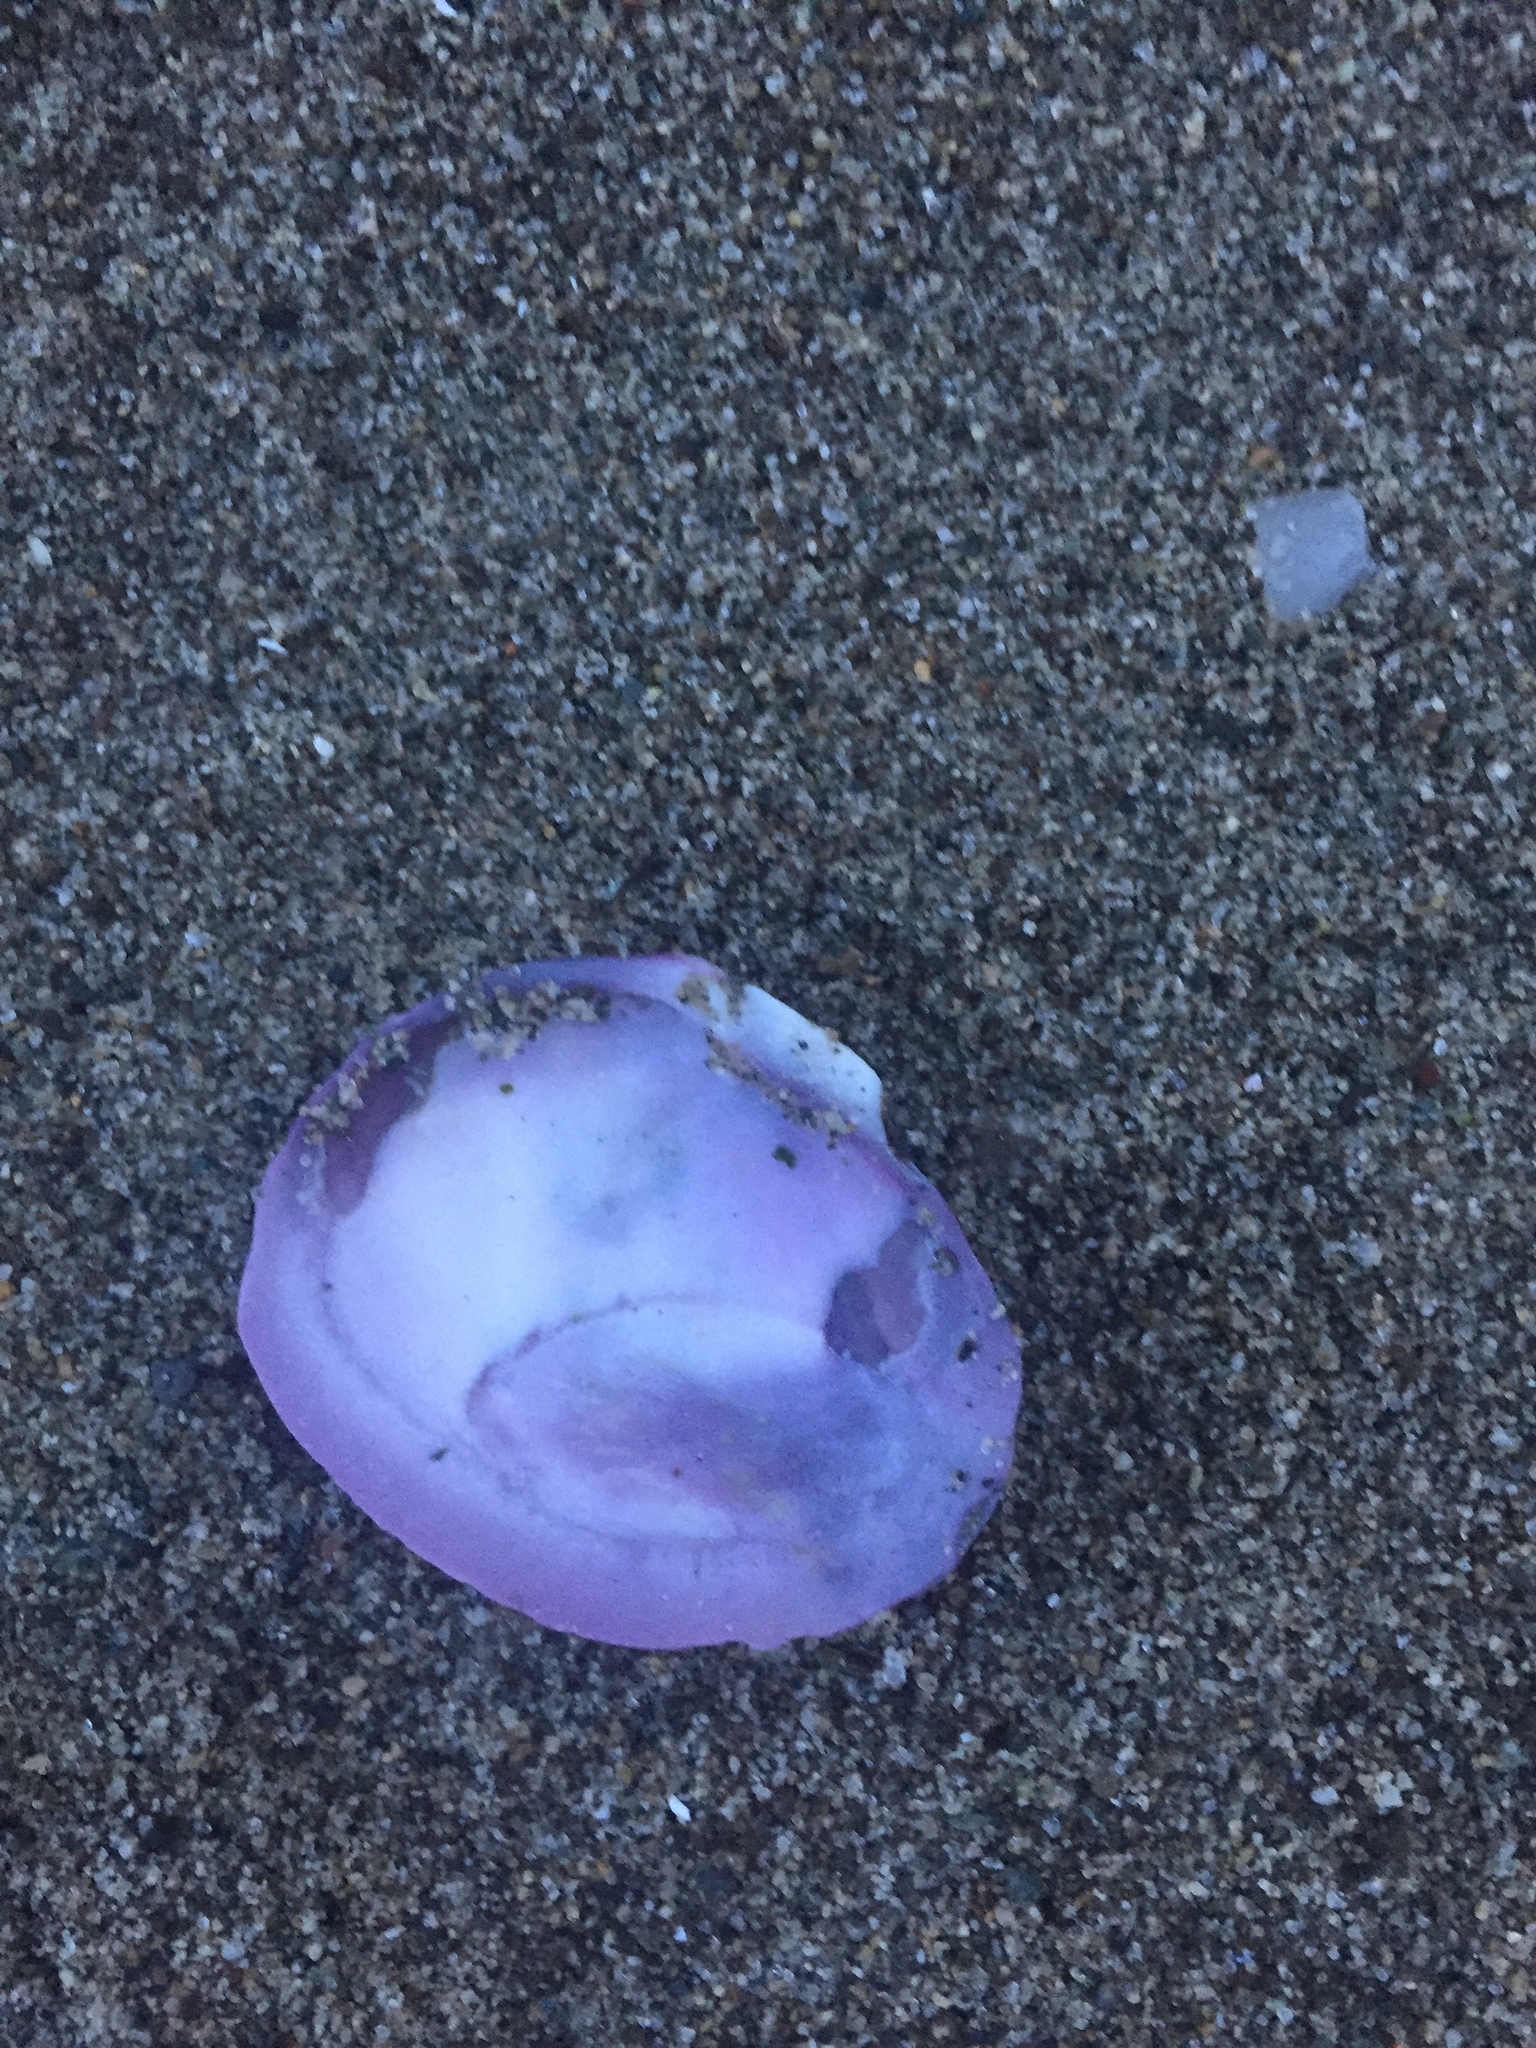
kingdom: Animalia
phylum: Mollusca
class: Bivalvia
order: Cardiida
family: Psammobiidae
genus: Nuttallia
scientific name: Nuttallia obscurata
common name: Purple mahogany-clam
